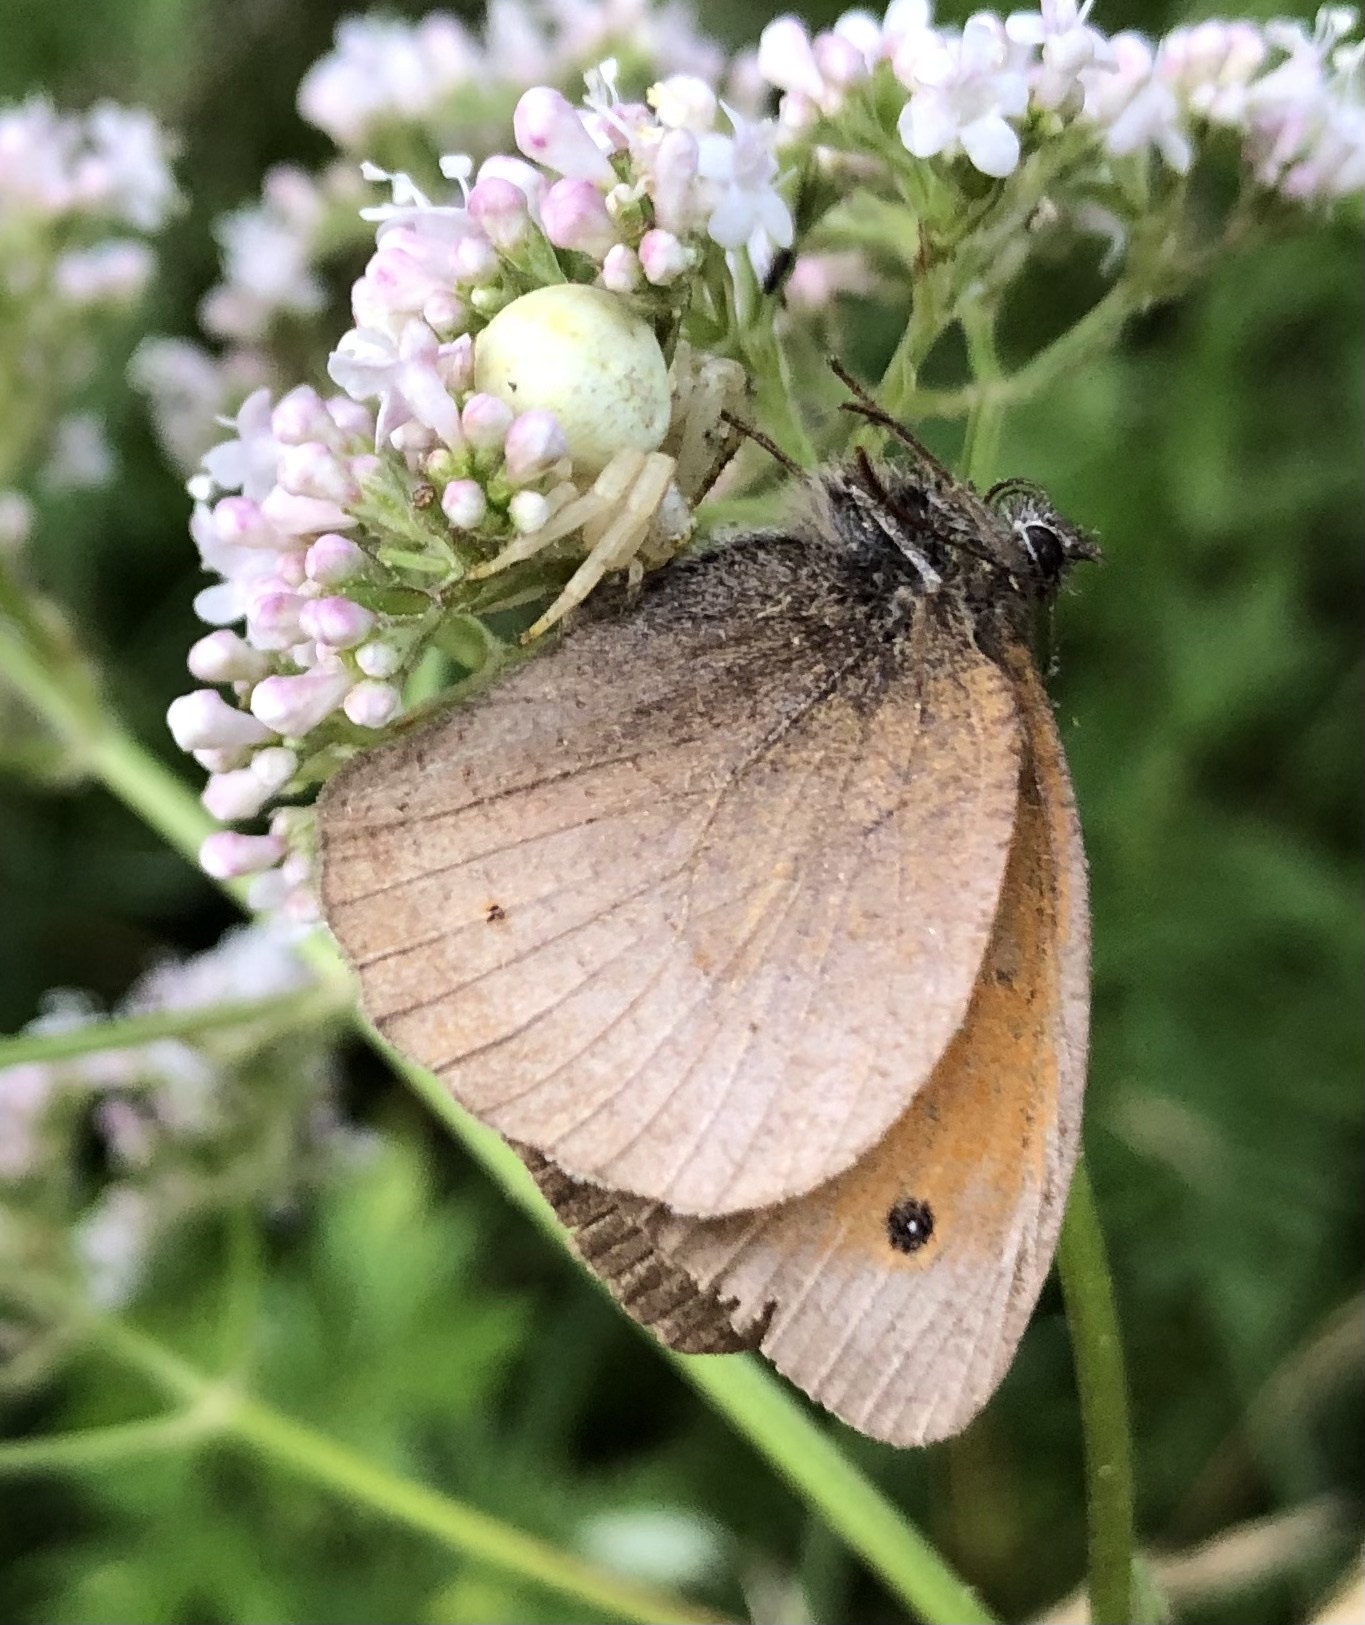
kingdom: Animalia
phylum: Arthropoda
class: Arachnida
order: Araneae
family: Thomisidae
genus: Misumena
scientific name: Misumena vatia
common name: Goldenrod crab spider
